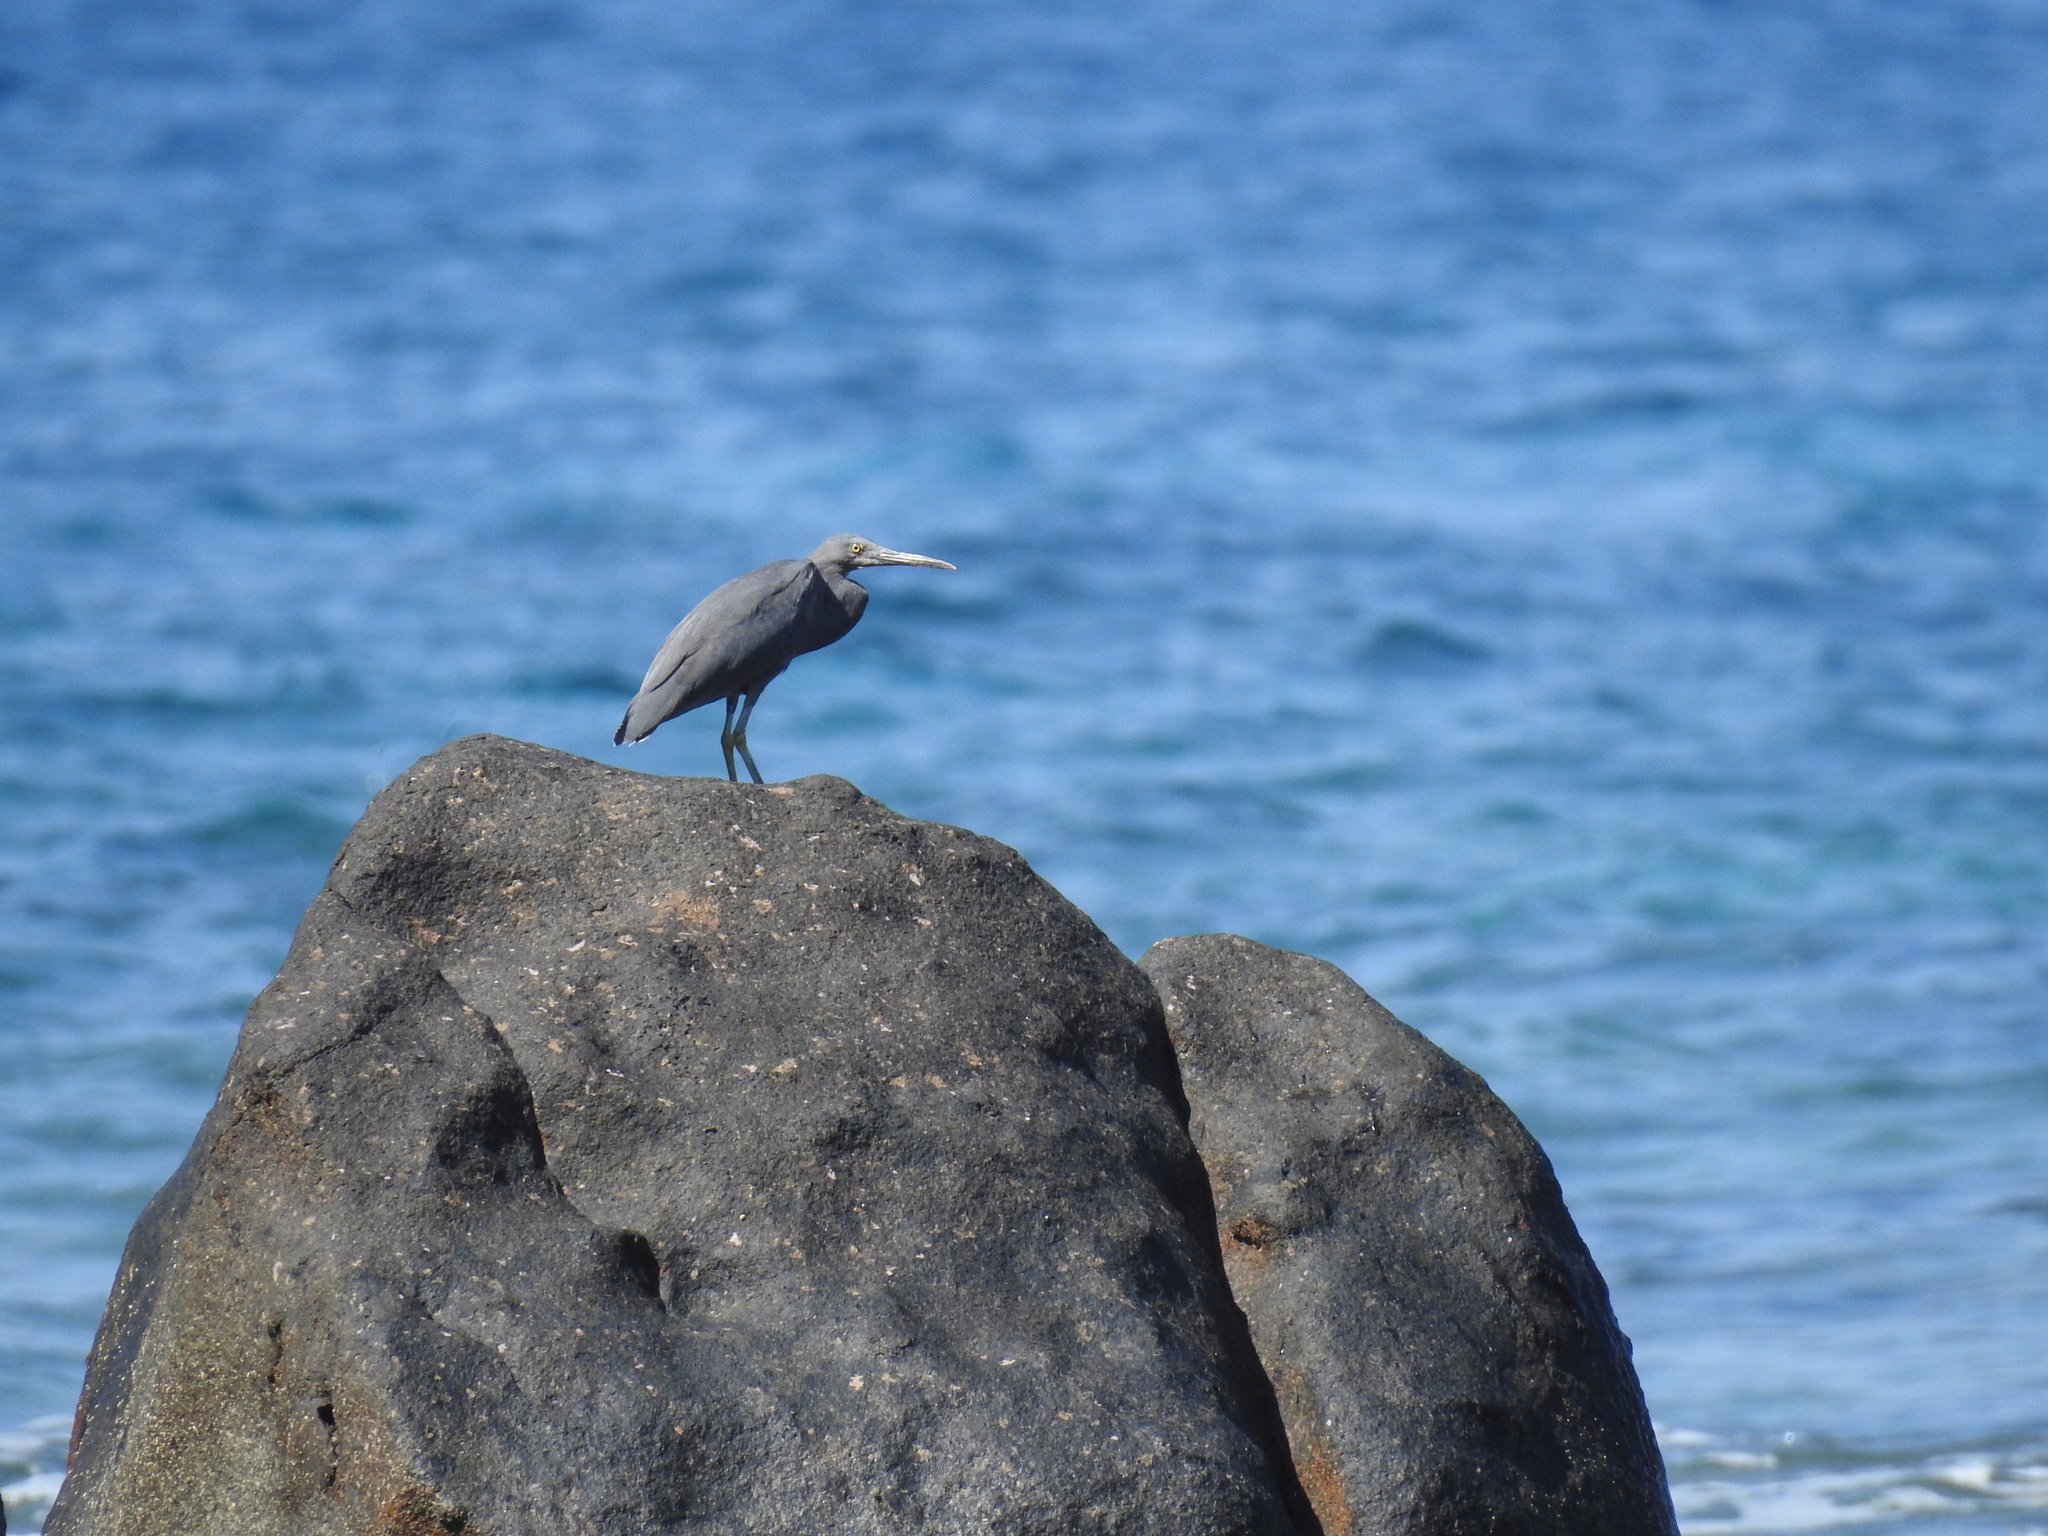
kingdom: Animalia
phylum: Chordata
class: Aves
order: Pelecaniformes
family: Ardeidae
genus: Egretta
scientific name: Egretta sacra
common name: Pacific reef heron
